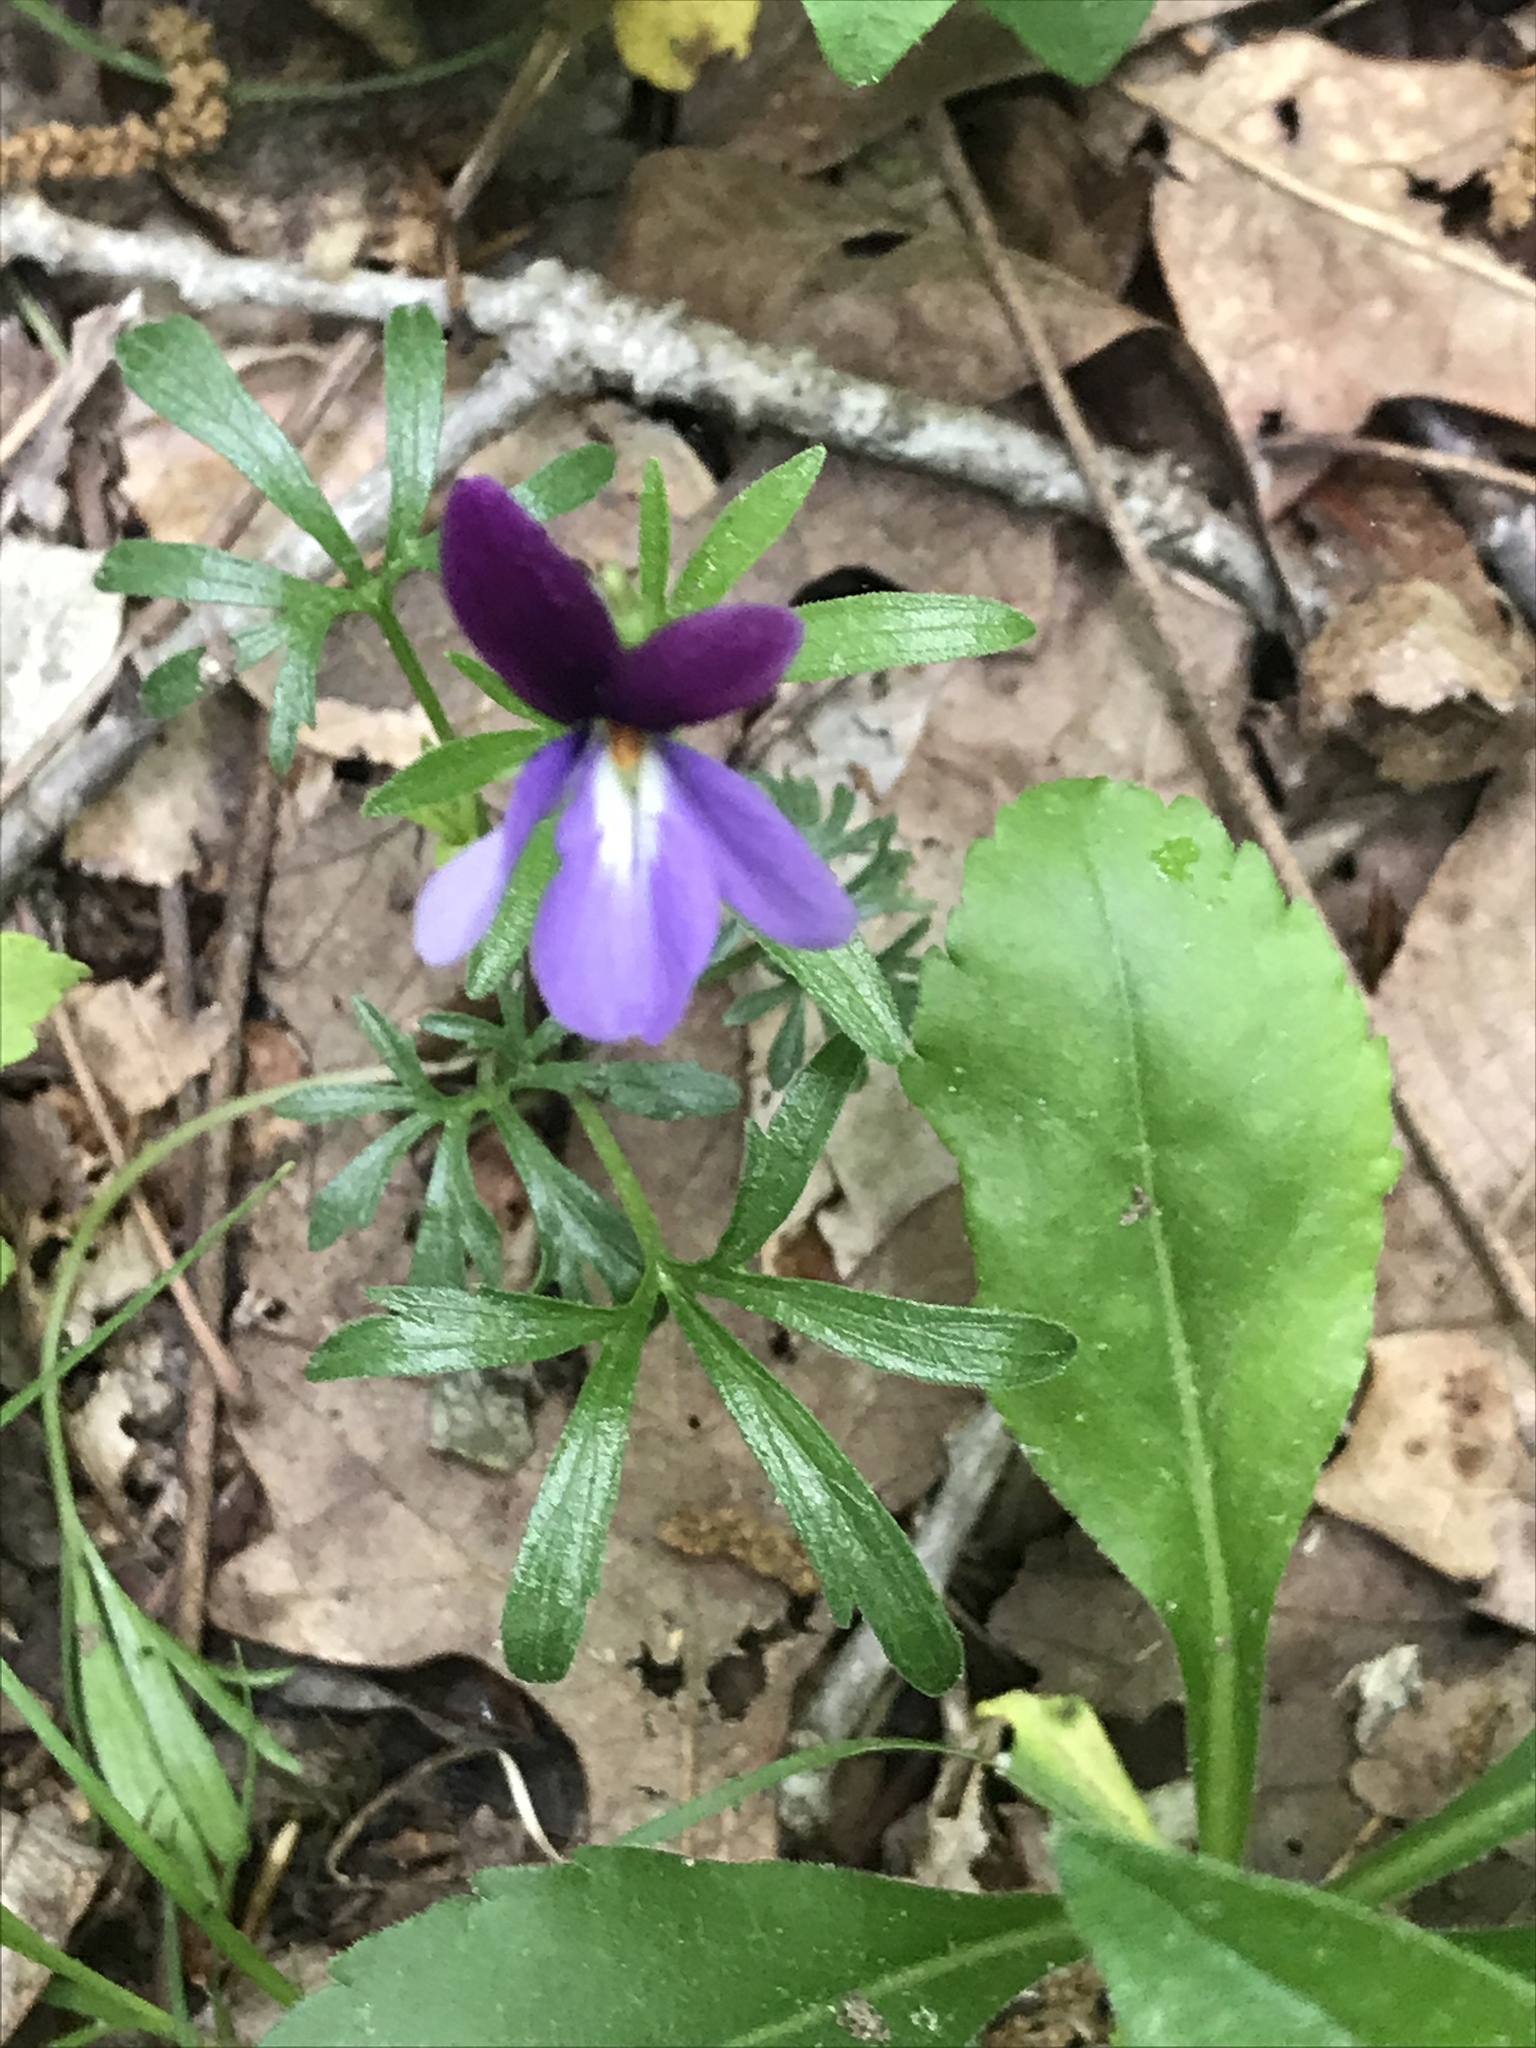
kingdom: Plantae
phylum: Tracheophyta
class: Magnoliopsida
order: Malpighiales
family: Violaceae
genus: Viola
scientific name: Viola pedata
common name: Pansy violet
